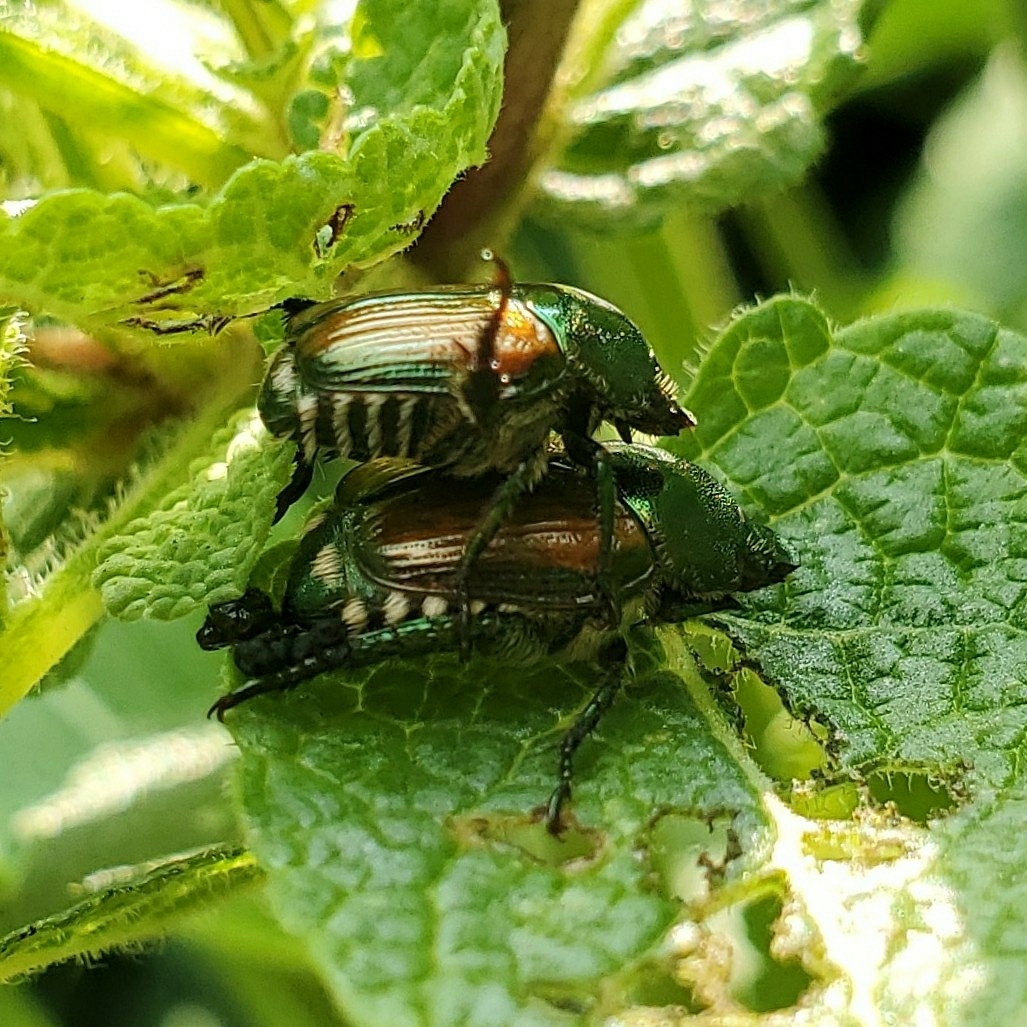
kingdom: Animalia
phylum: Arthropoda
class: Insecta
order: Coleoptera
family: Scarabaeidae
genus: Popillia
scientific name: Popillia japonica
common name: Japanese beetle
